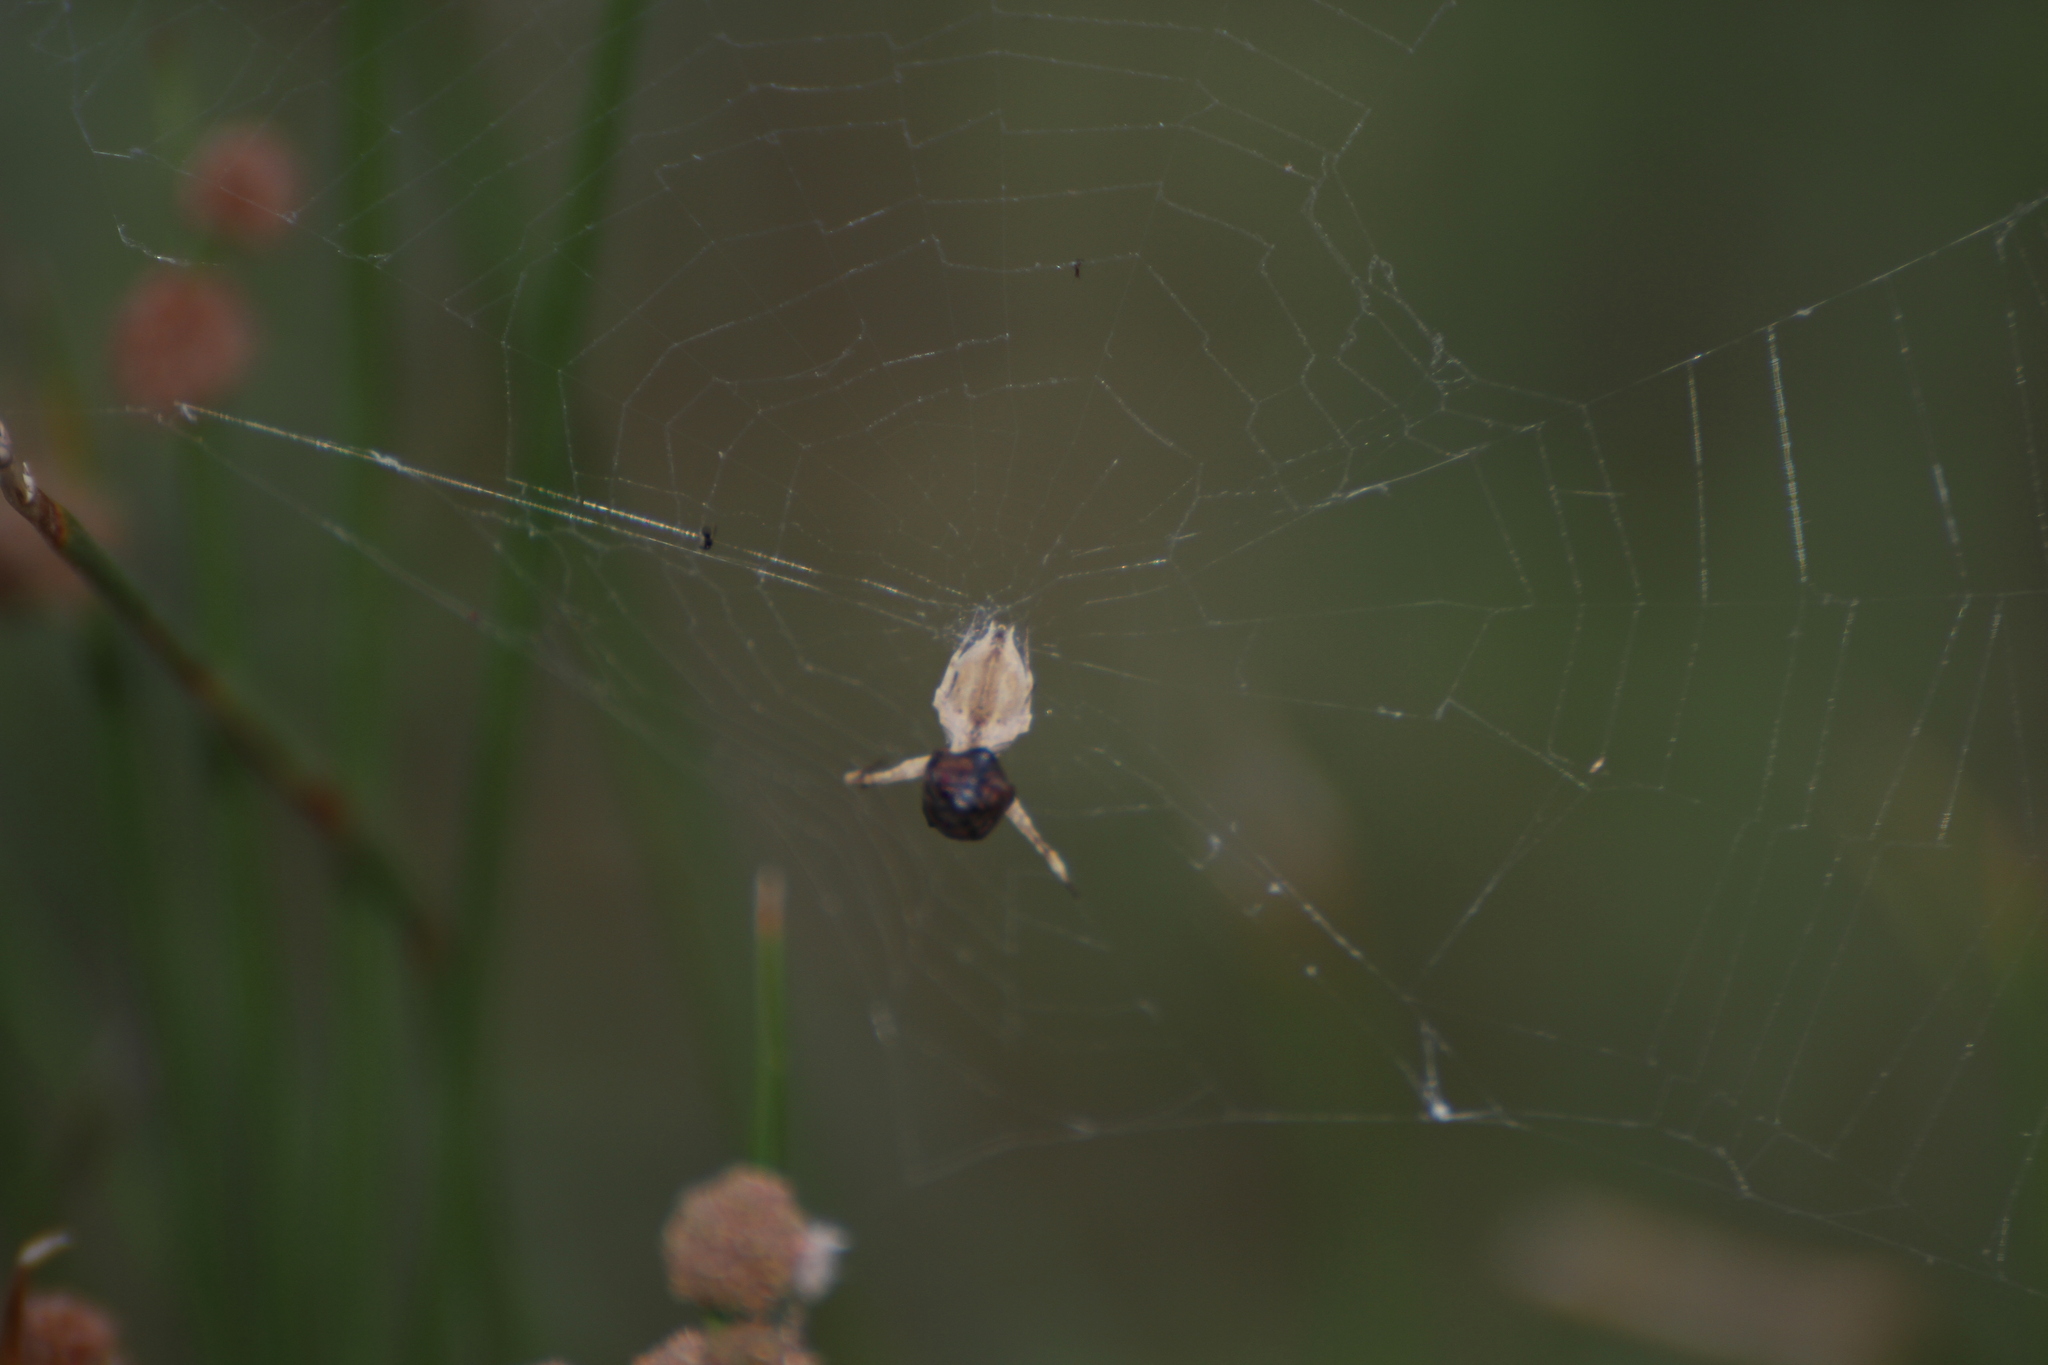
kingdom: Animalia
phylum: Arthropoda
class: Arachnida
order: Araneae
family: Uloboridae
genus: Uloborus
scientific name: Uloborus walckenaerius
